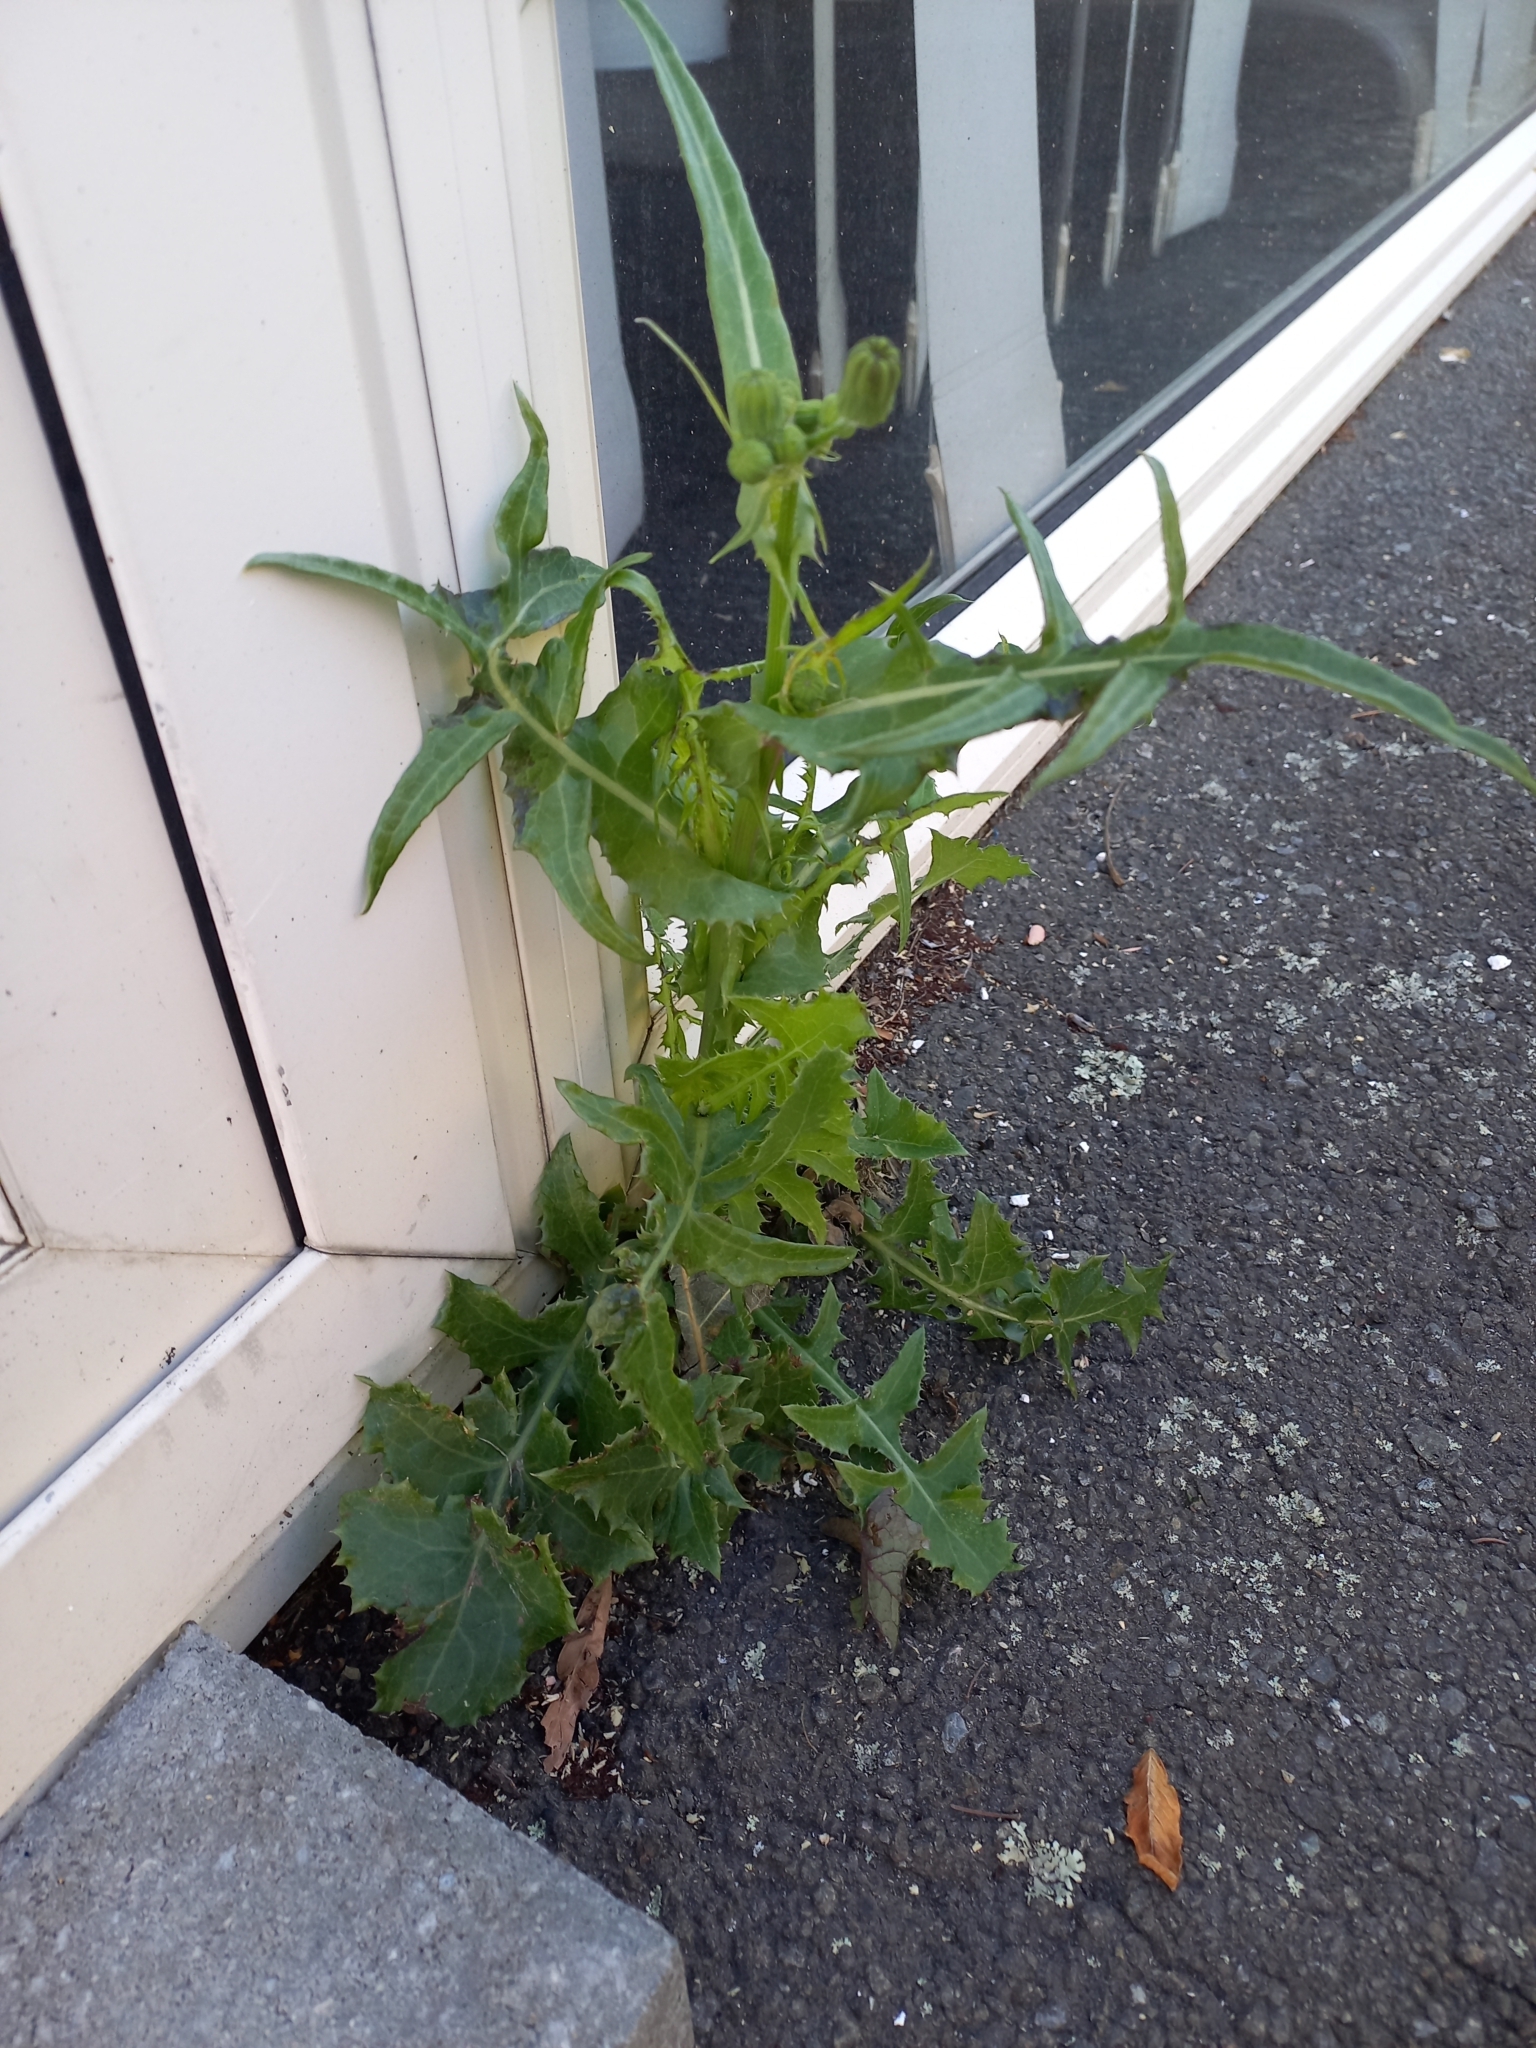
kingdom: Plantae
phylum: Tracheophyta
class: Magnoliopsida
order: Asterales
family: Asteraceae
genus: Sonchus
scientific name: Sonchus oleraceus
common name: Common sowthistle
